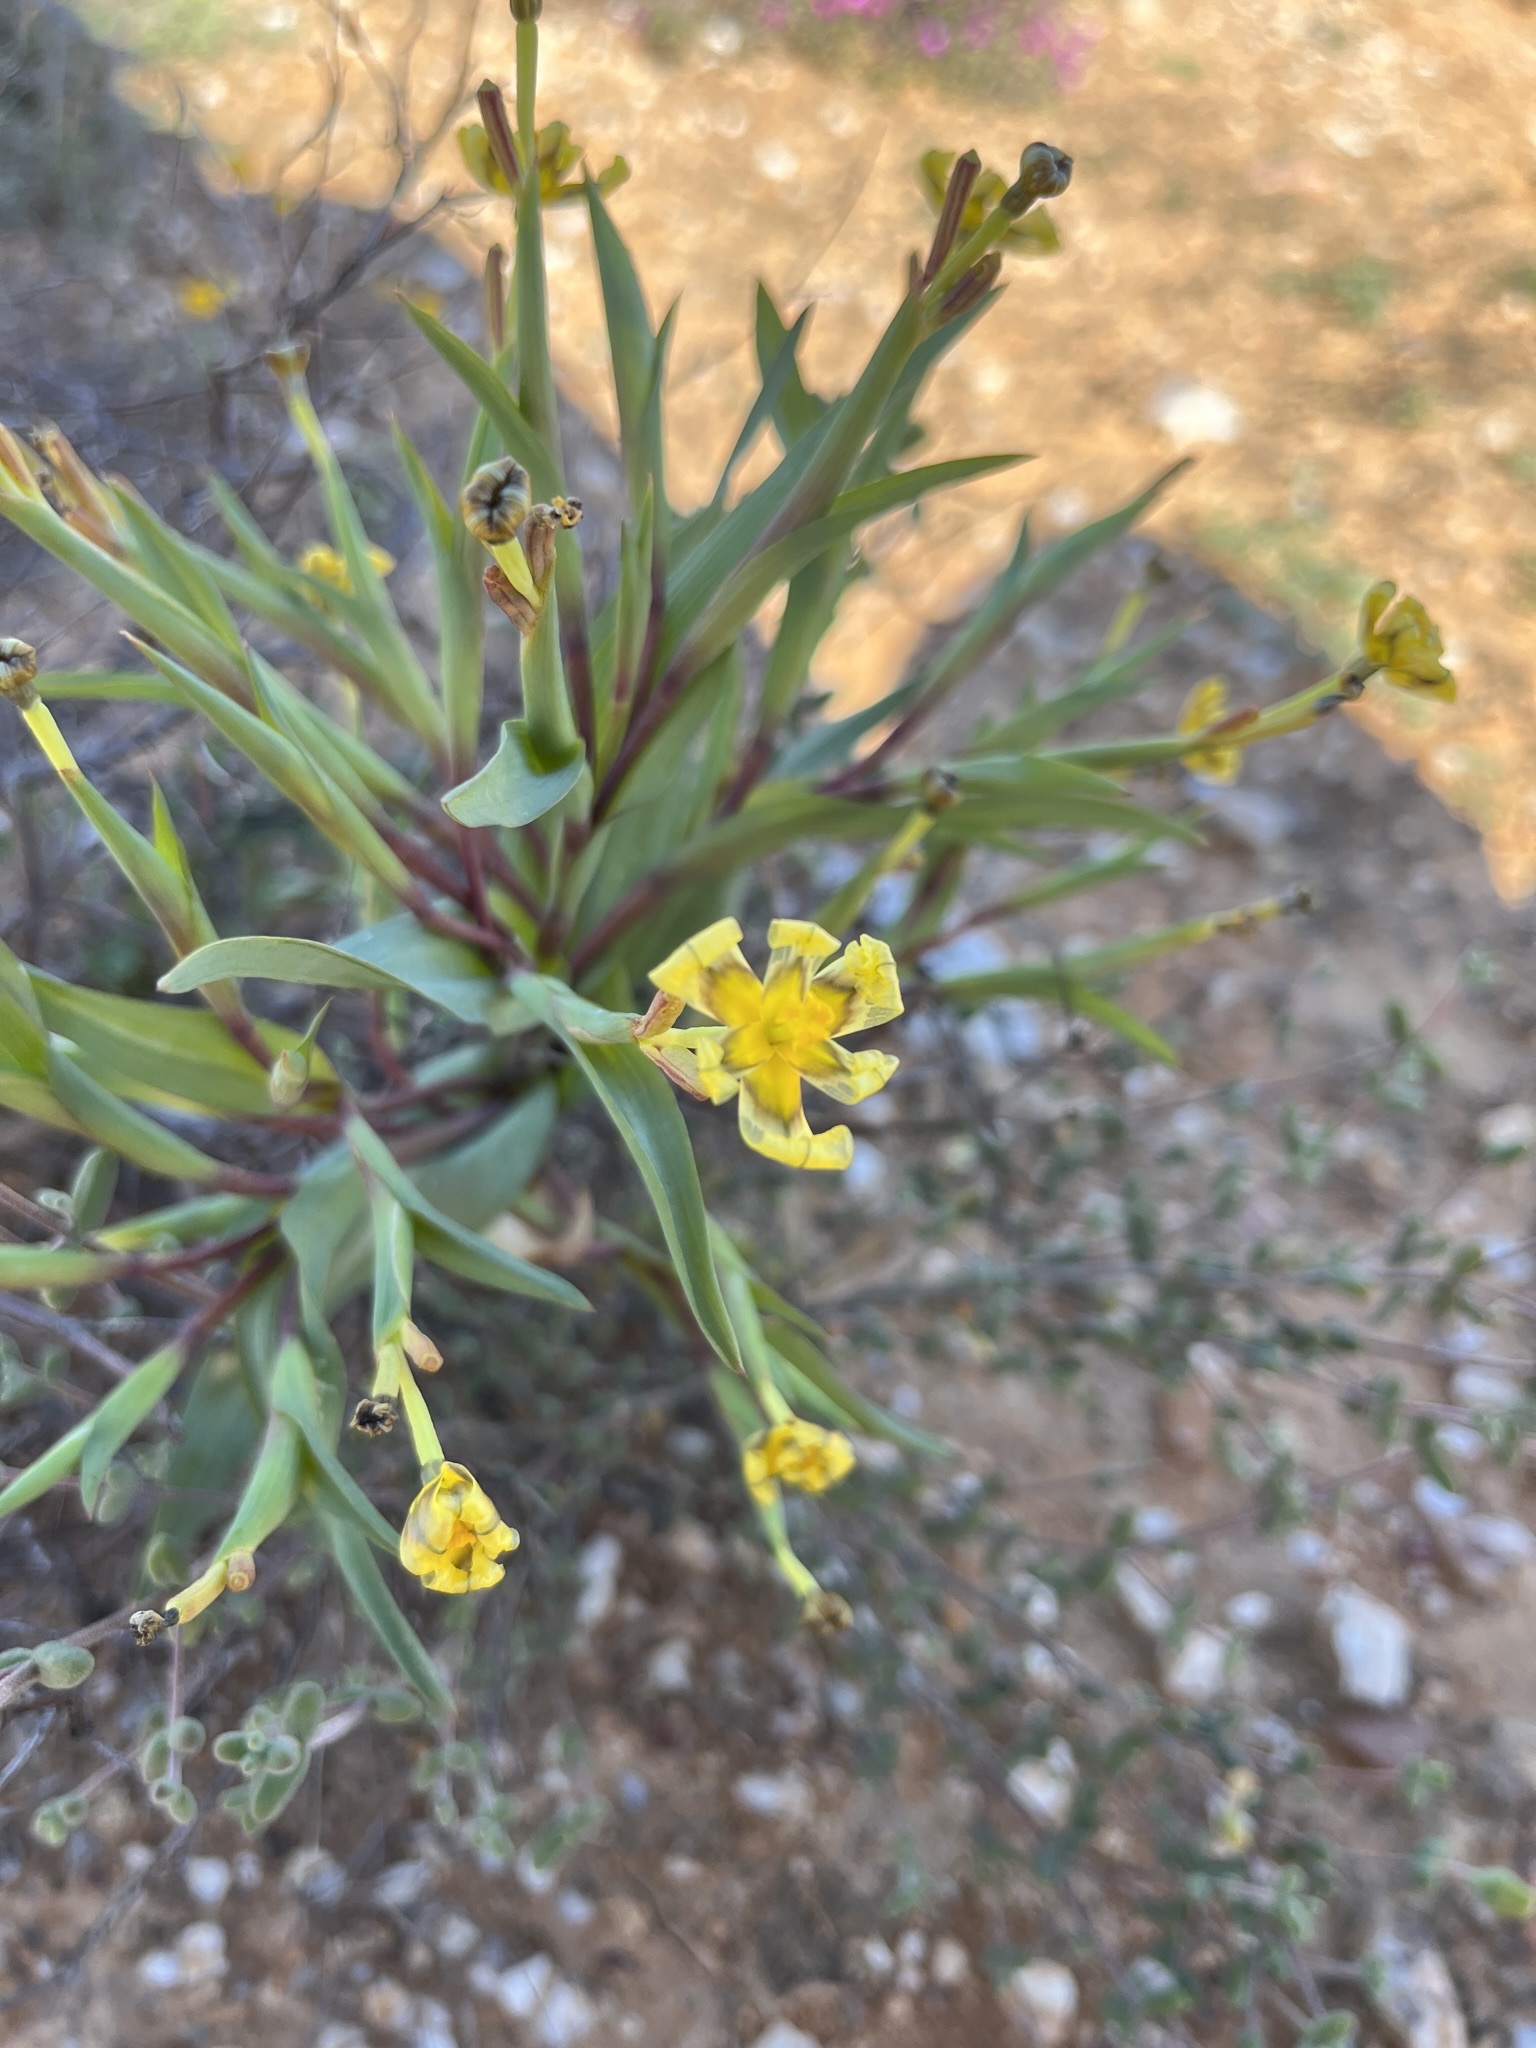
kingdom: Plantae
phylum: Tracheophyta
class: Liliopsida
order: Asparagales
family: Iridaceae
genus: Moraea
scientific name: Moraea knersvlaktensis
